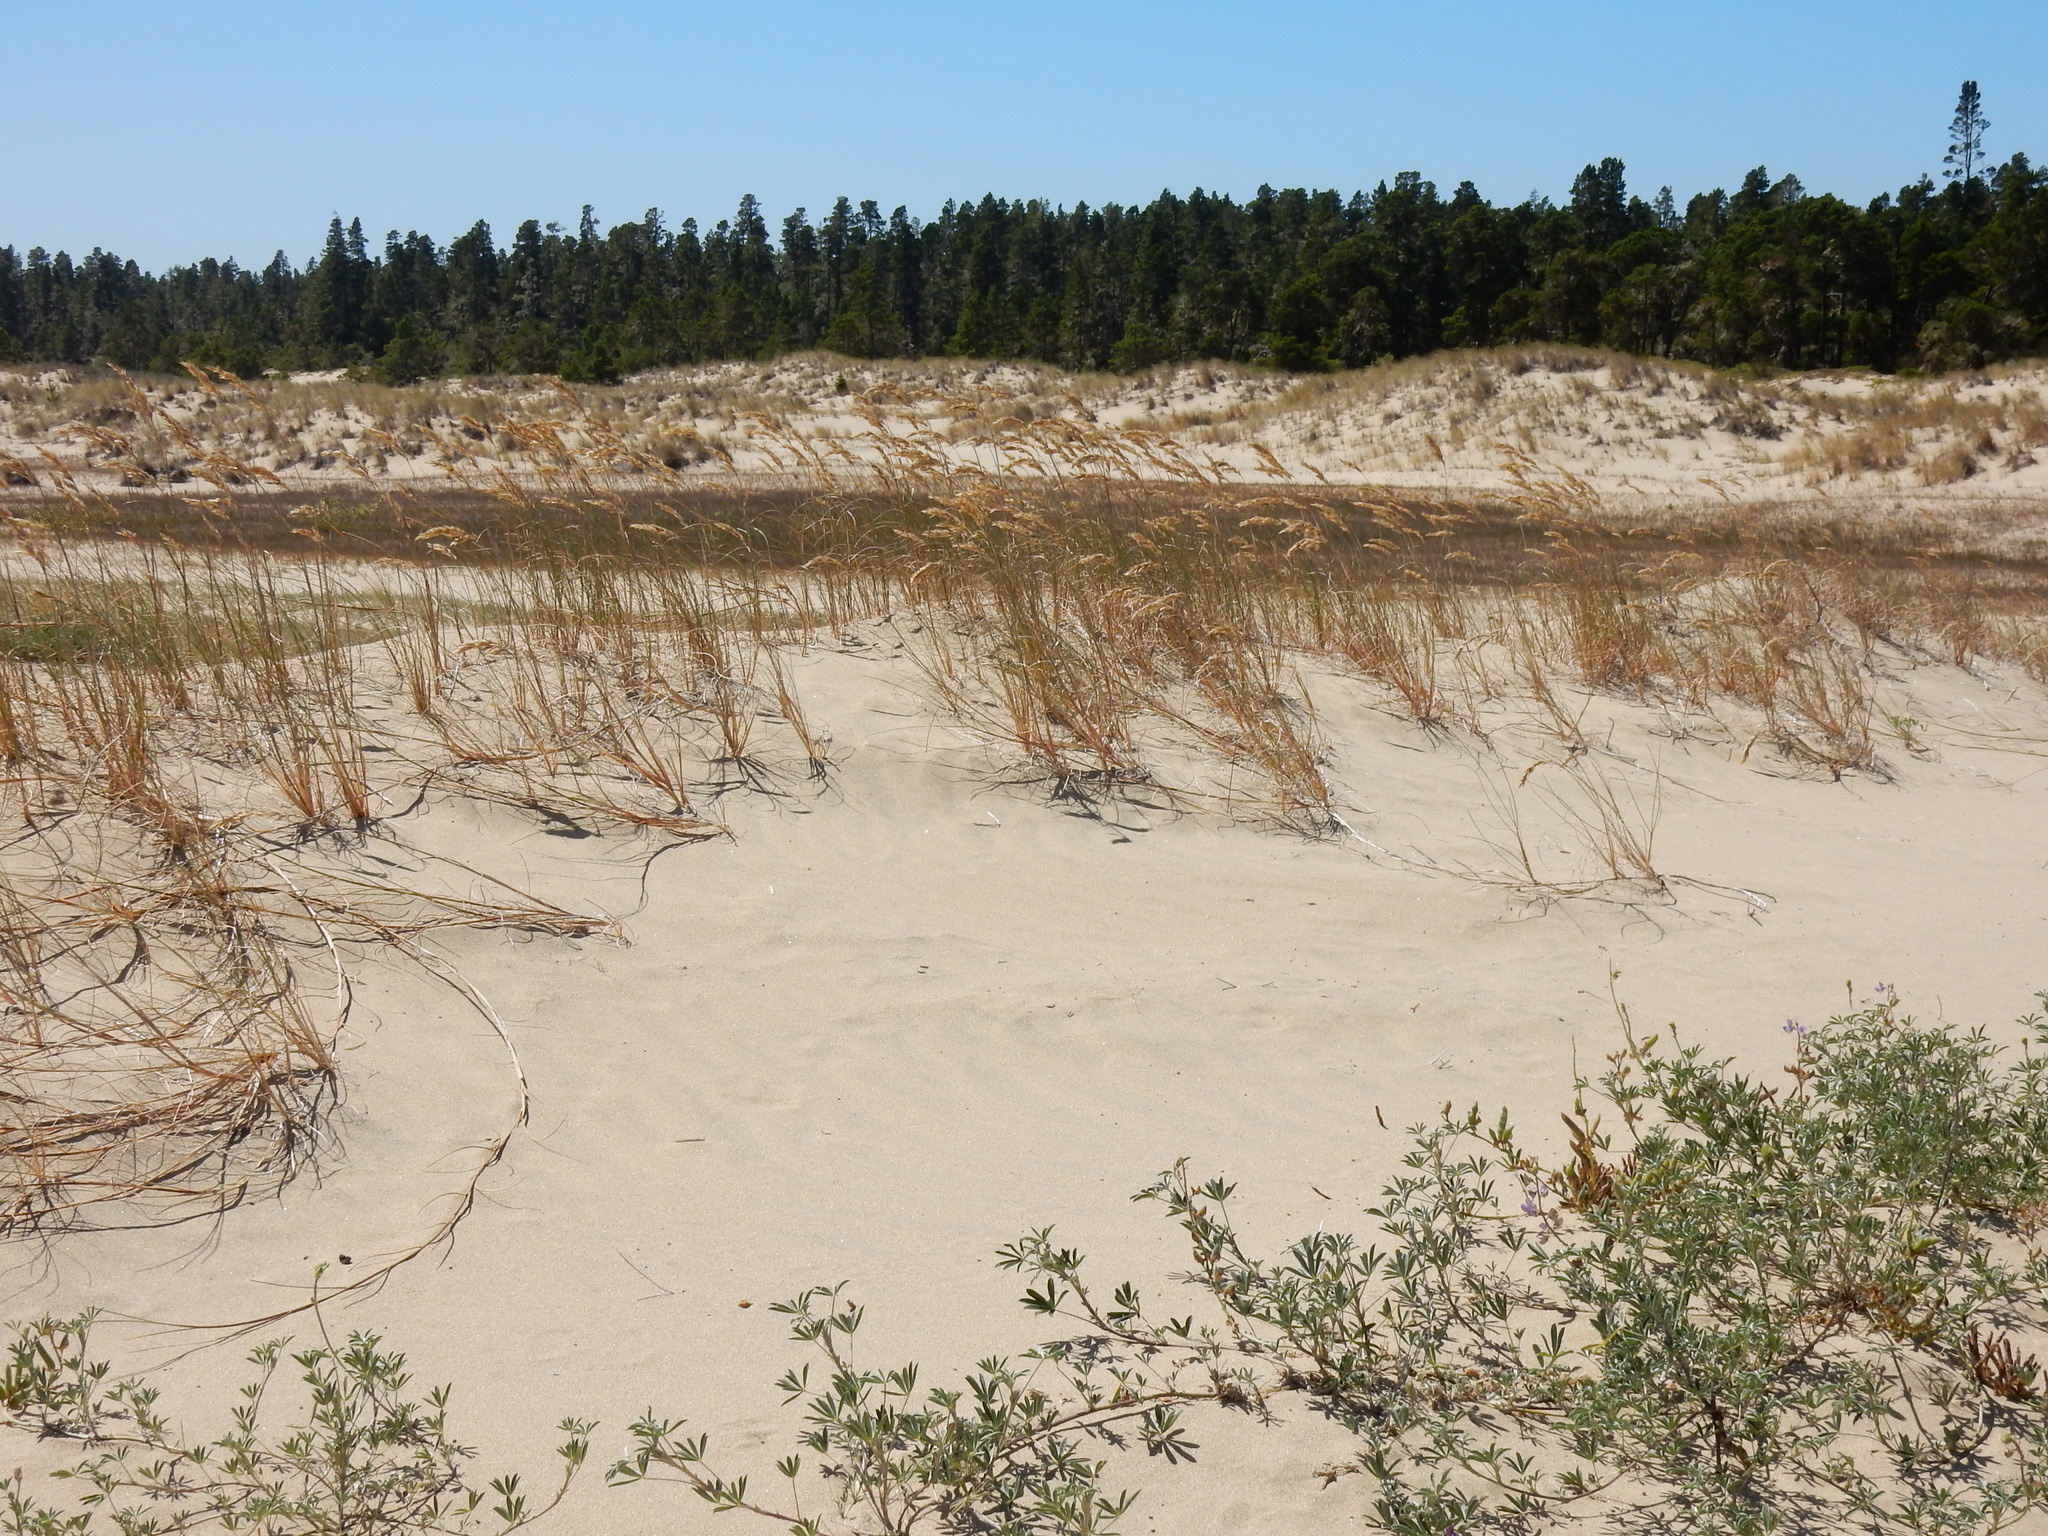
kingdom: Plantae
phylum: Tracheophyta
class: Magnoliopsida
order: Fabales
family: Fabaceae
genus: Lupinus
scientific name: Lupinus littoralis
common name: Seashore lupine
